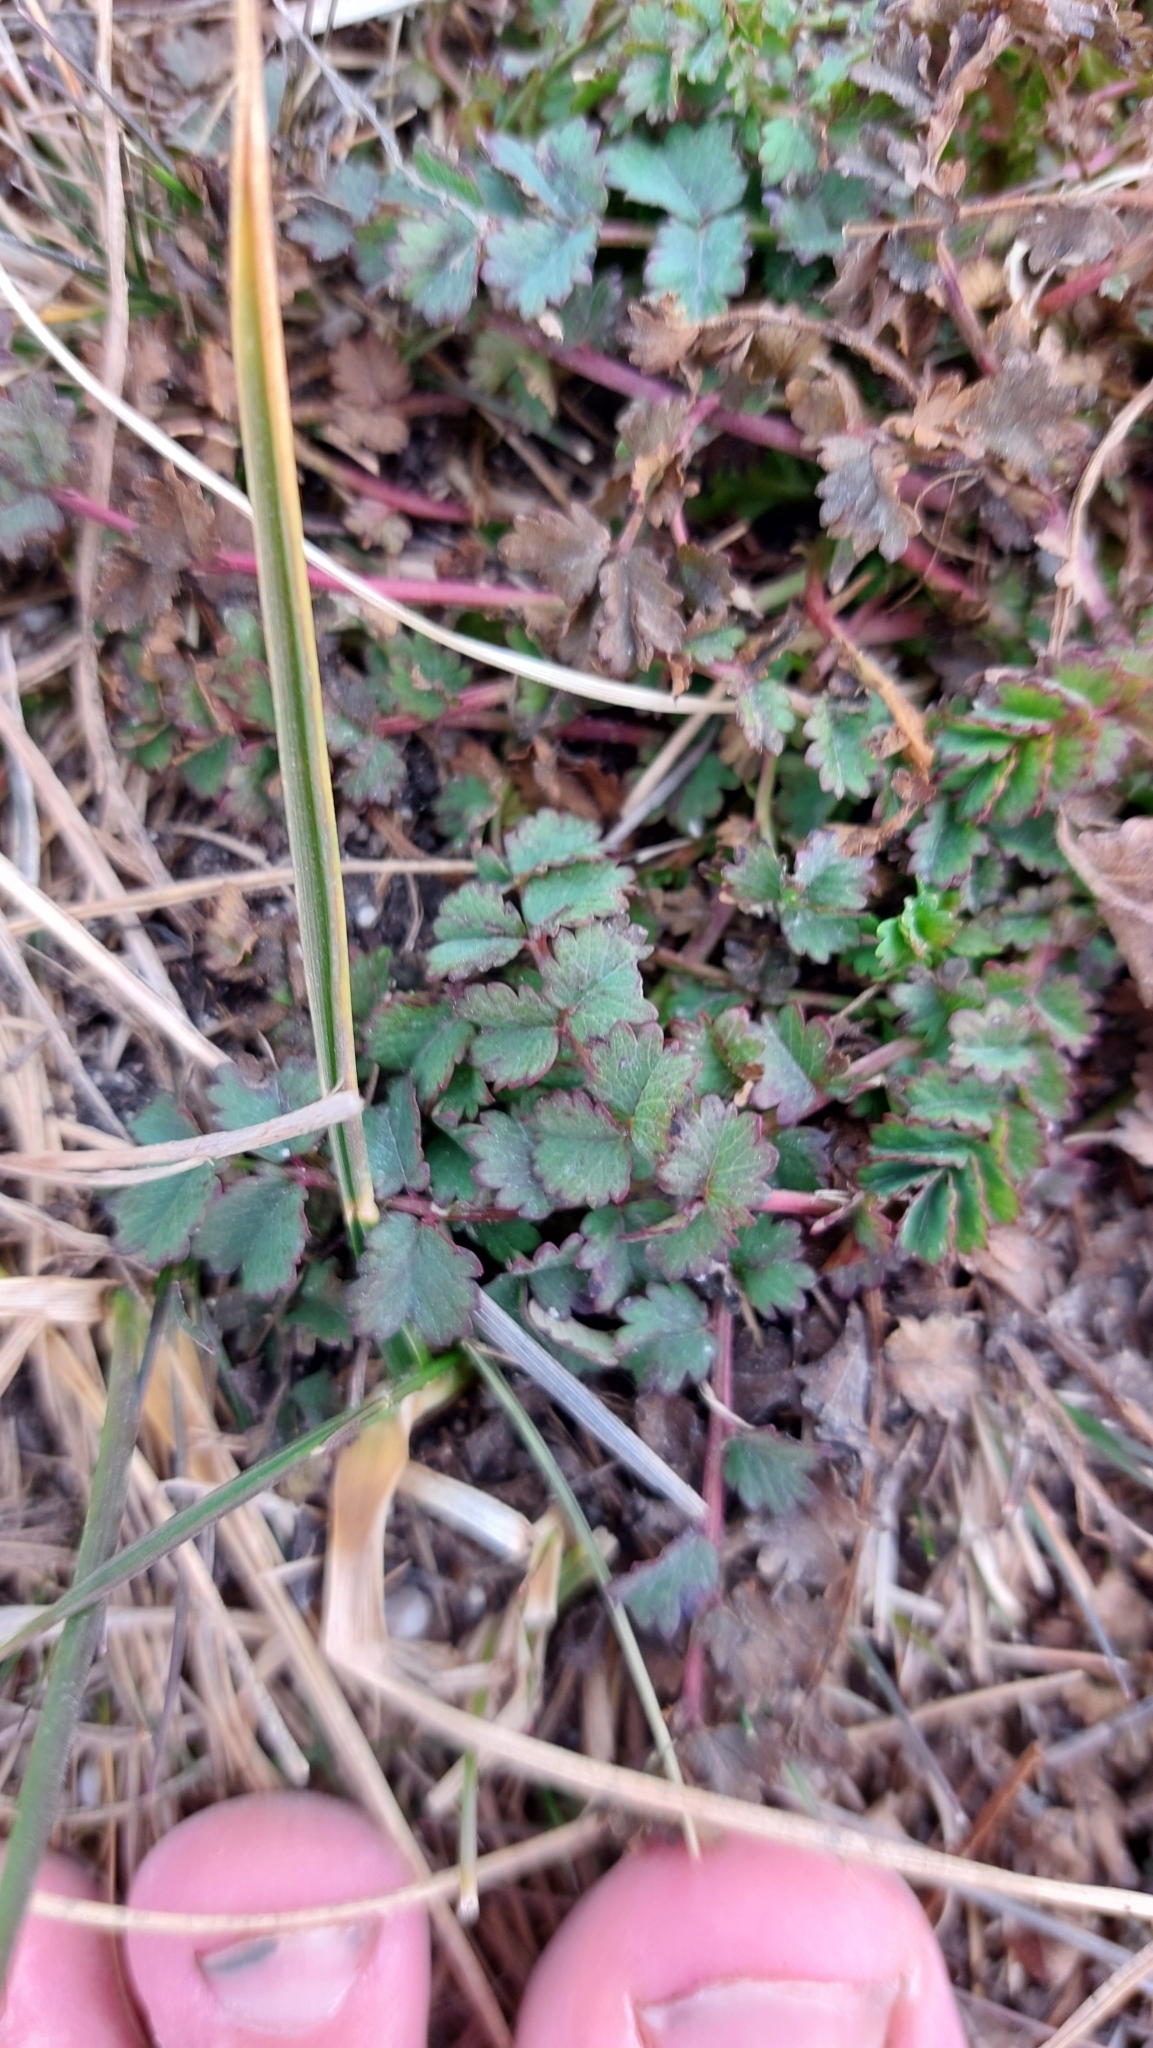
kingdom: Plantae
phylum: Tracheophyta
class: Magnoliopsida
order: Rosales
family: Rosaceae
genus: Poterium
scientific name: Poterium sanguisorba
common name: Salad burnet
